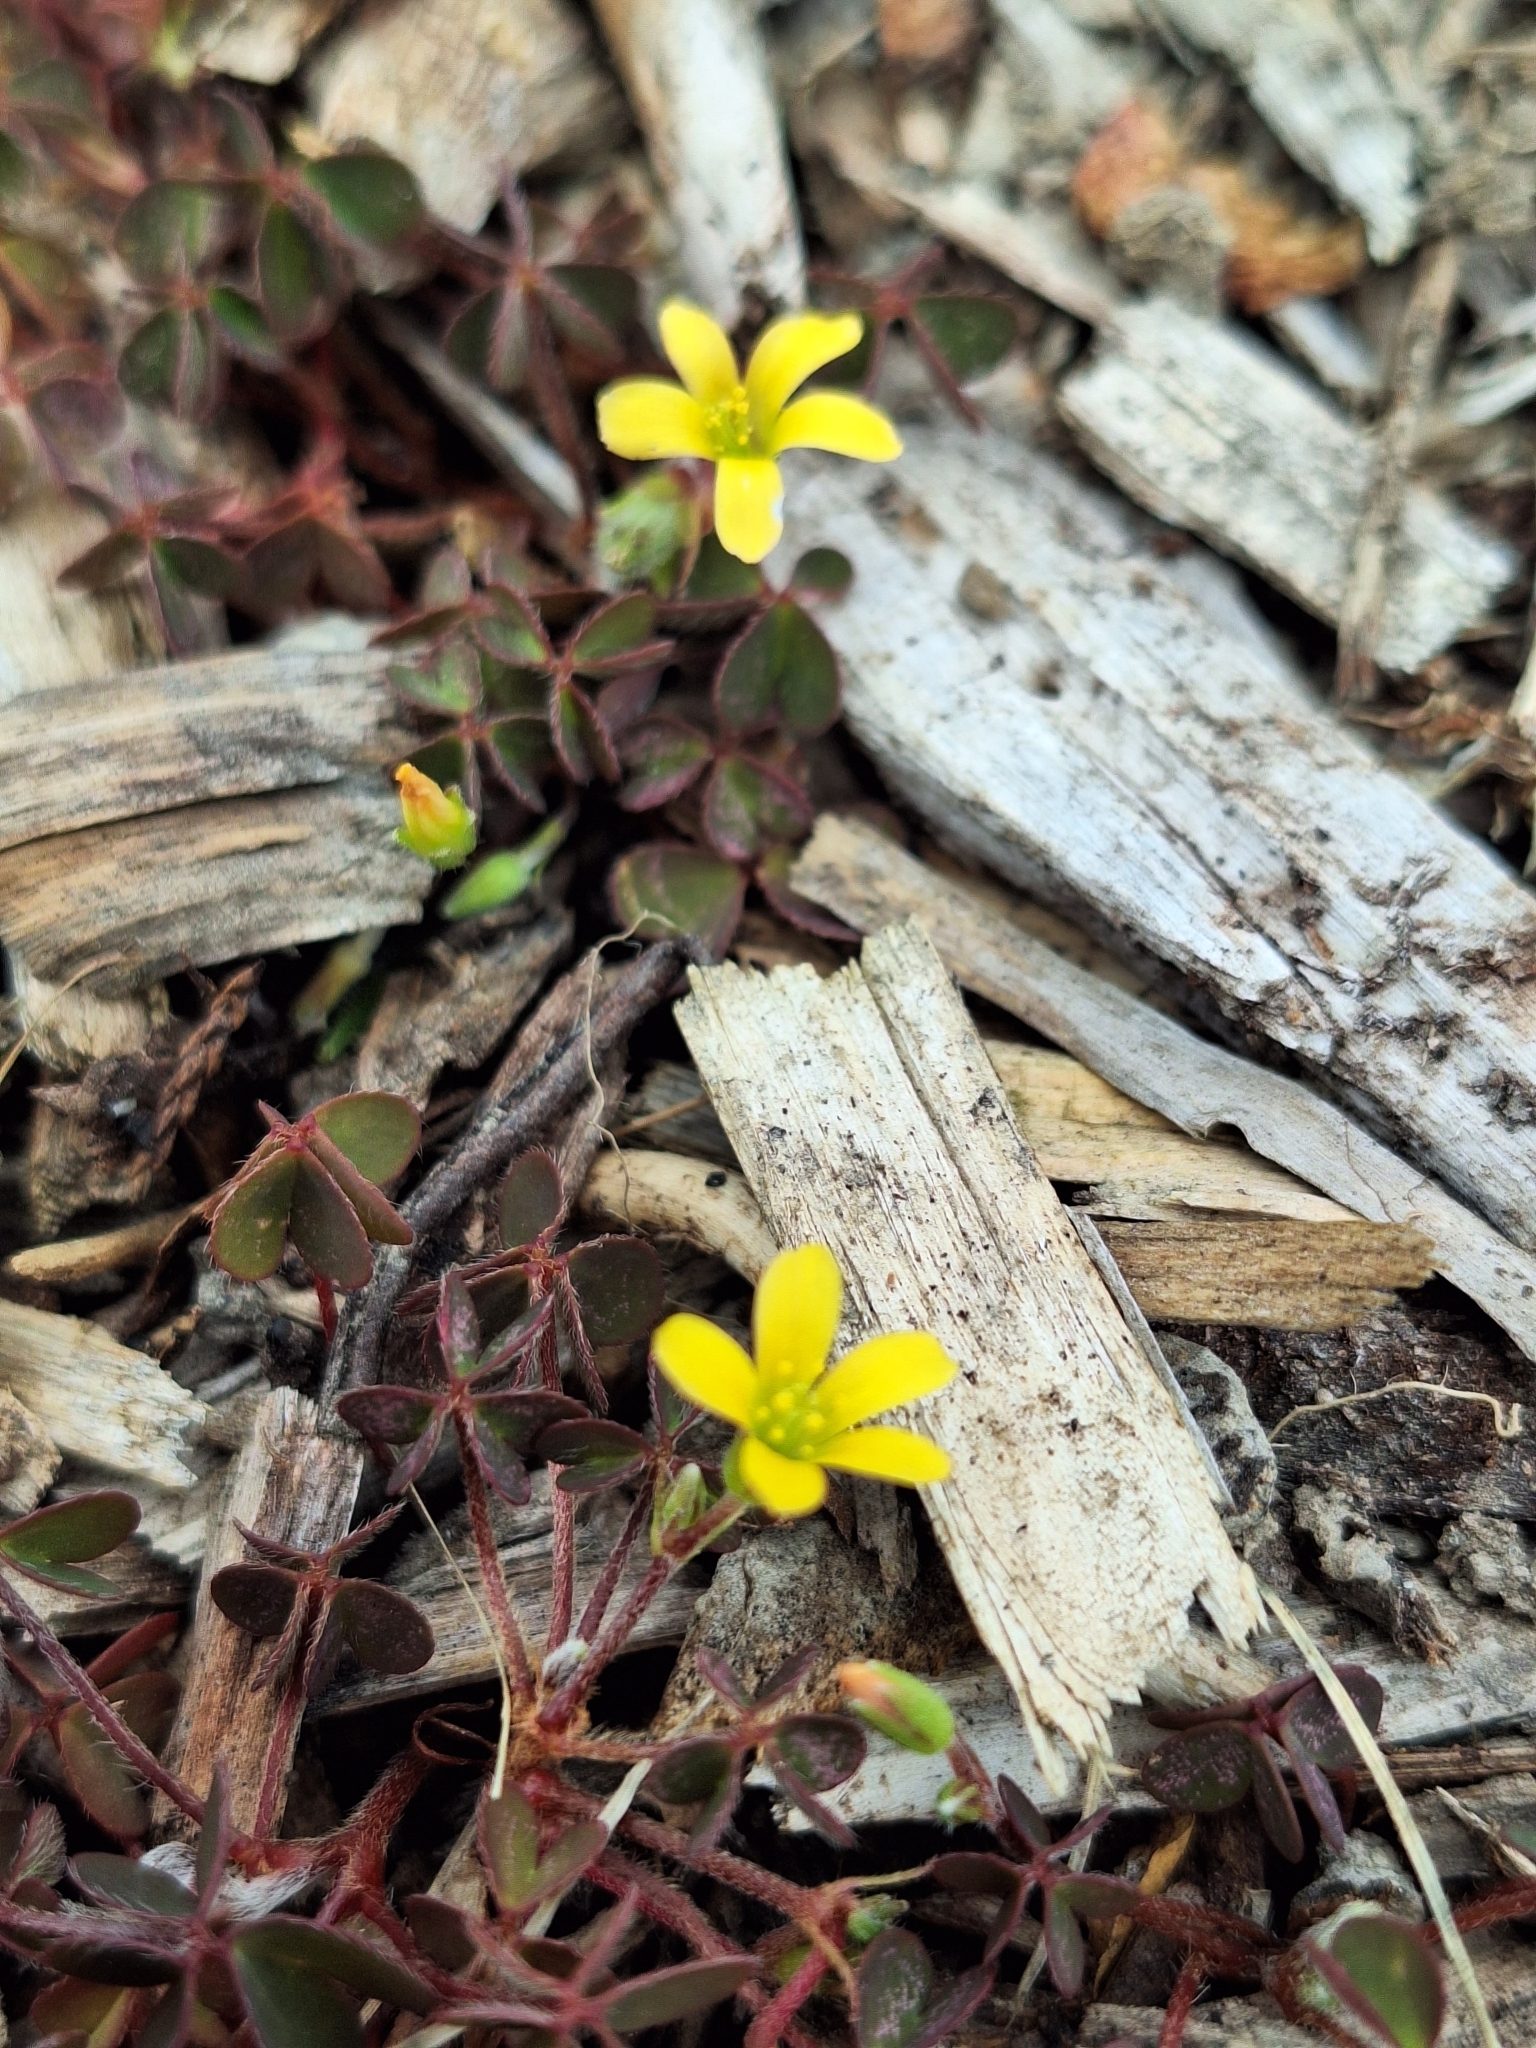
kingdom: Plantae
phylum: Tracheophyta
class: Magnoliopsida
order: Oxalidales
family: Oxalidaceae
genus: Oxalis
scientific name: Oxalis corniculata
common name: Procumbent yellow-sorrel
